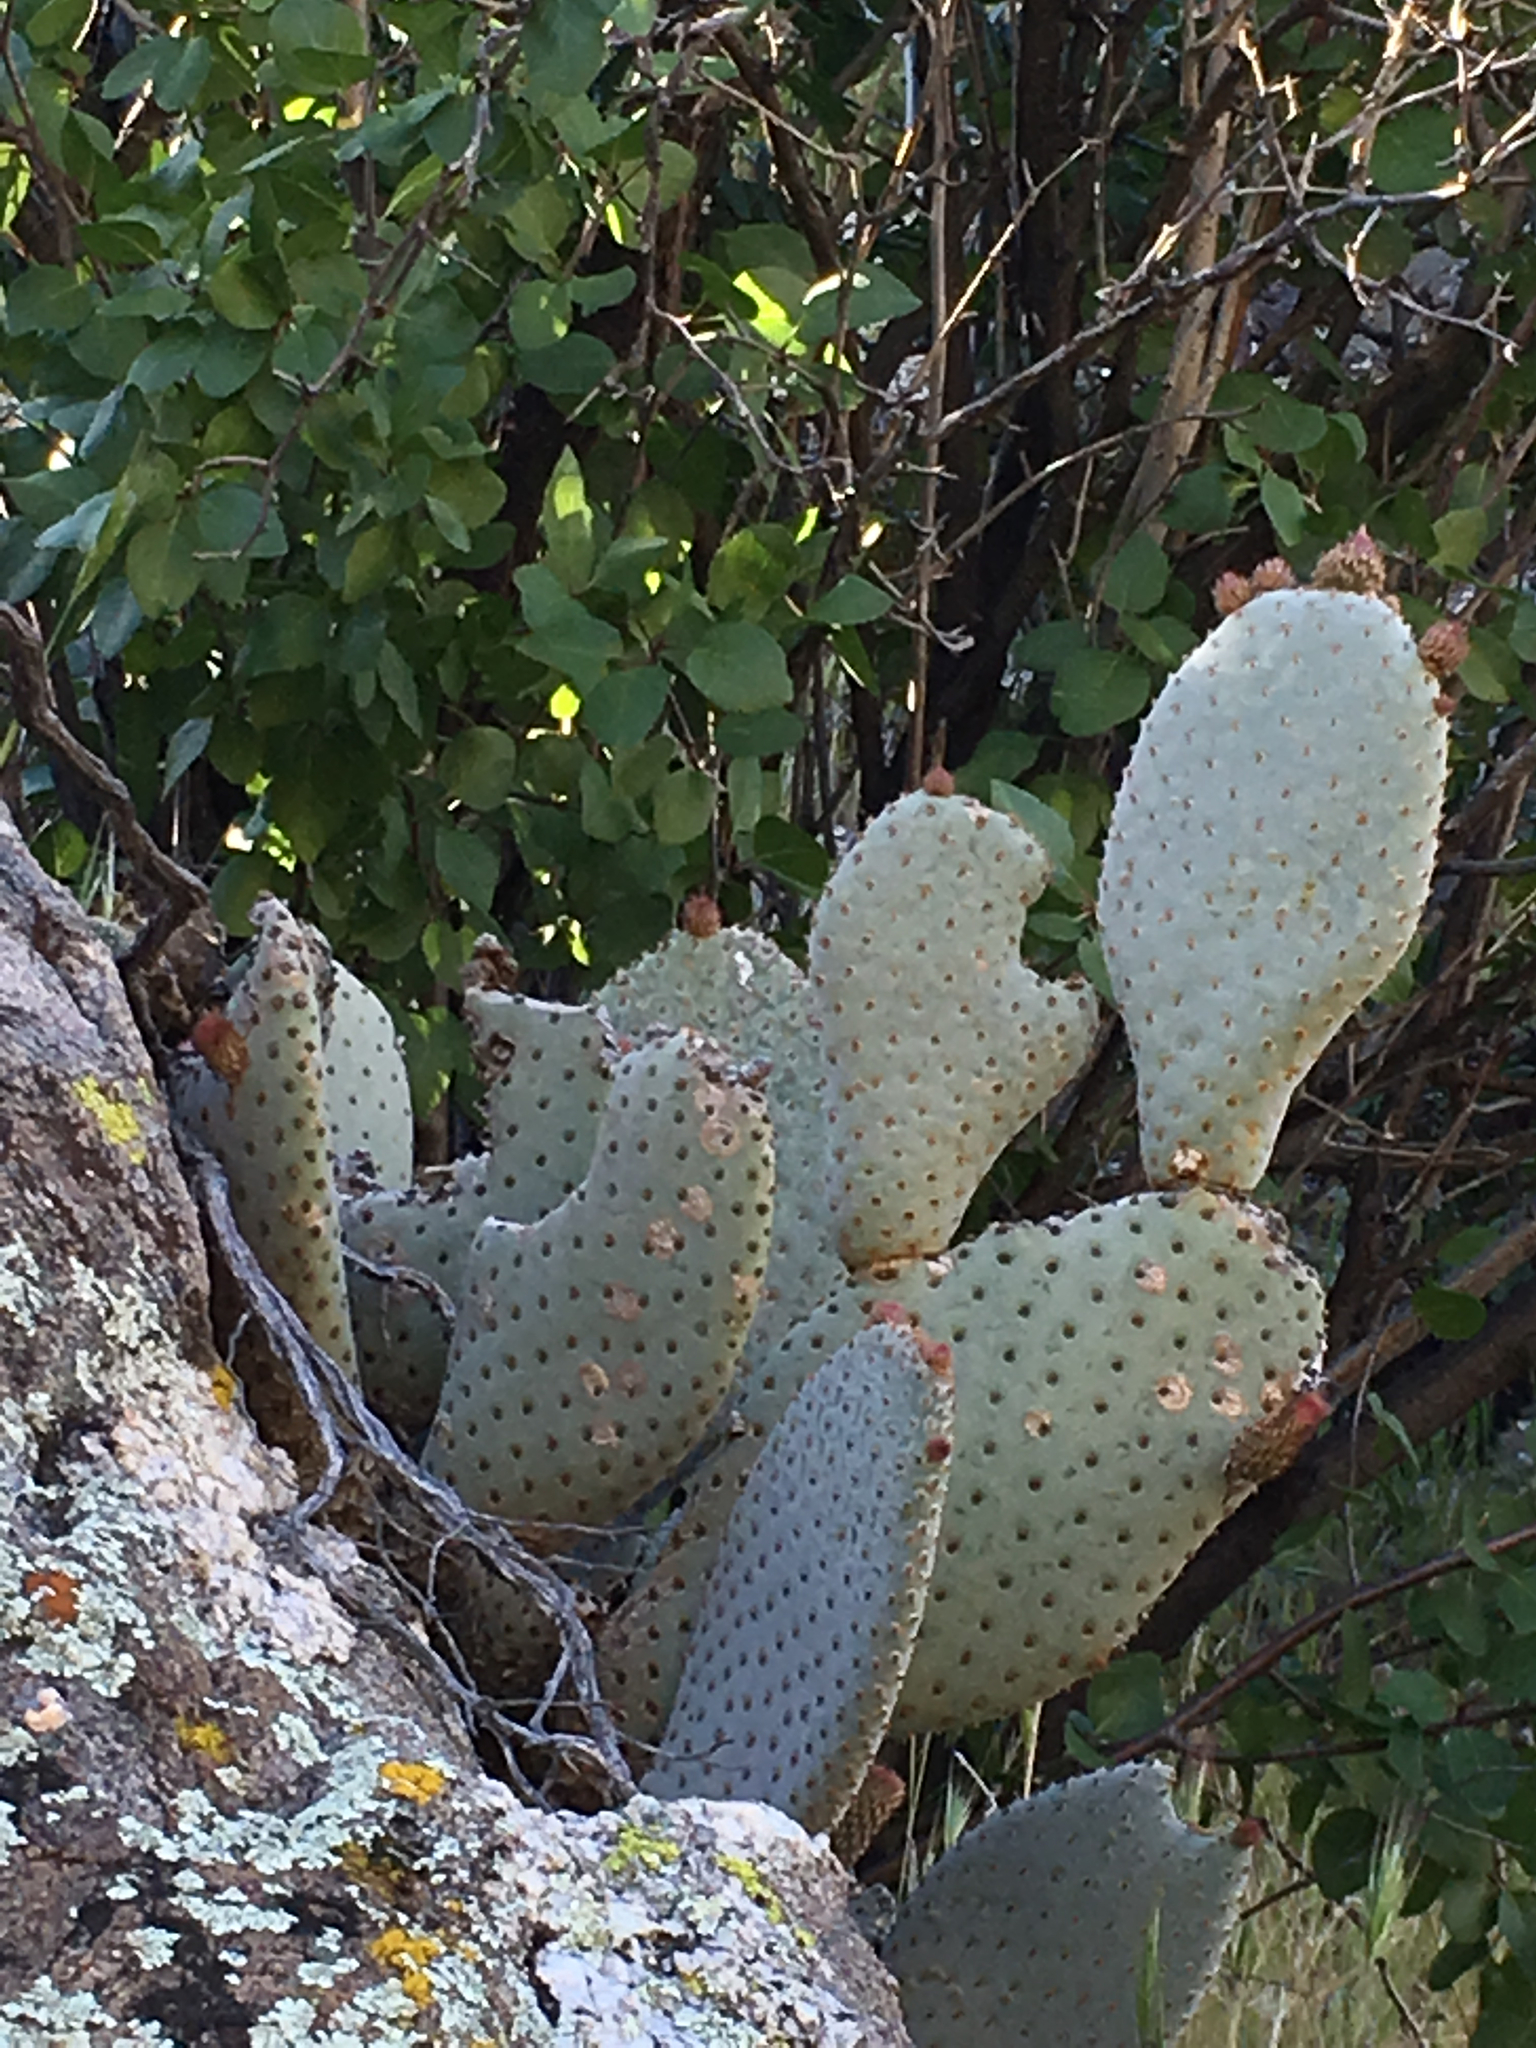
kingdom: Plantae
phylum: Tracheophyta
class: Magnoliopsida
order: Caryophyllales
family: Cactaceae
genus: Opuntia
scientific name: Opuntia basilaris
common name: Beavertail prickly-pear
